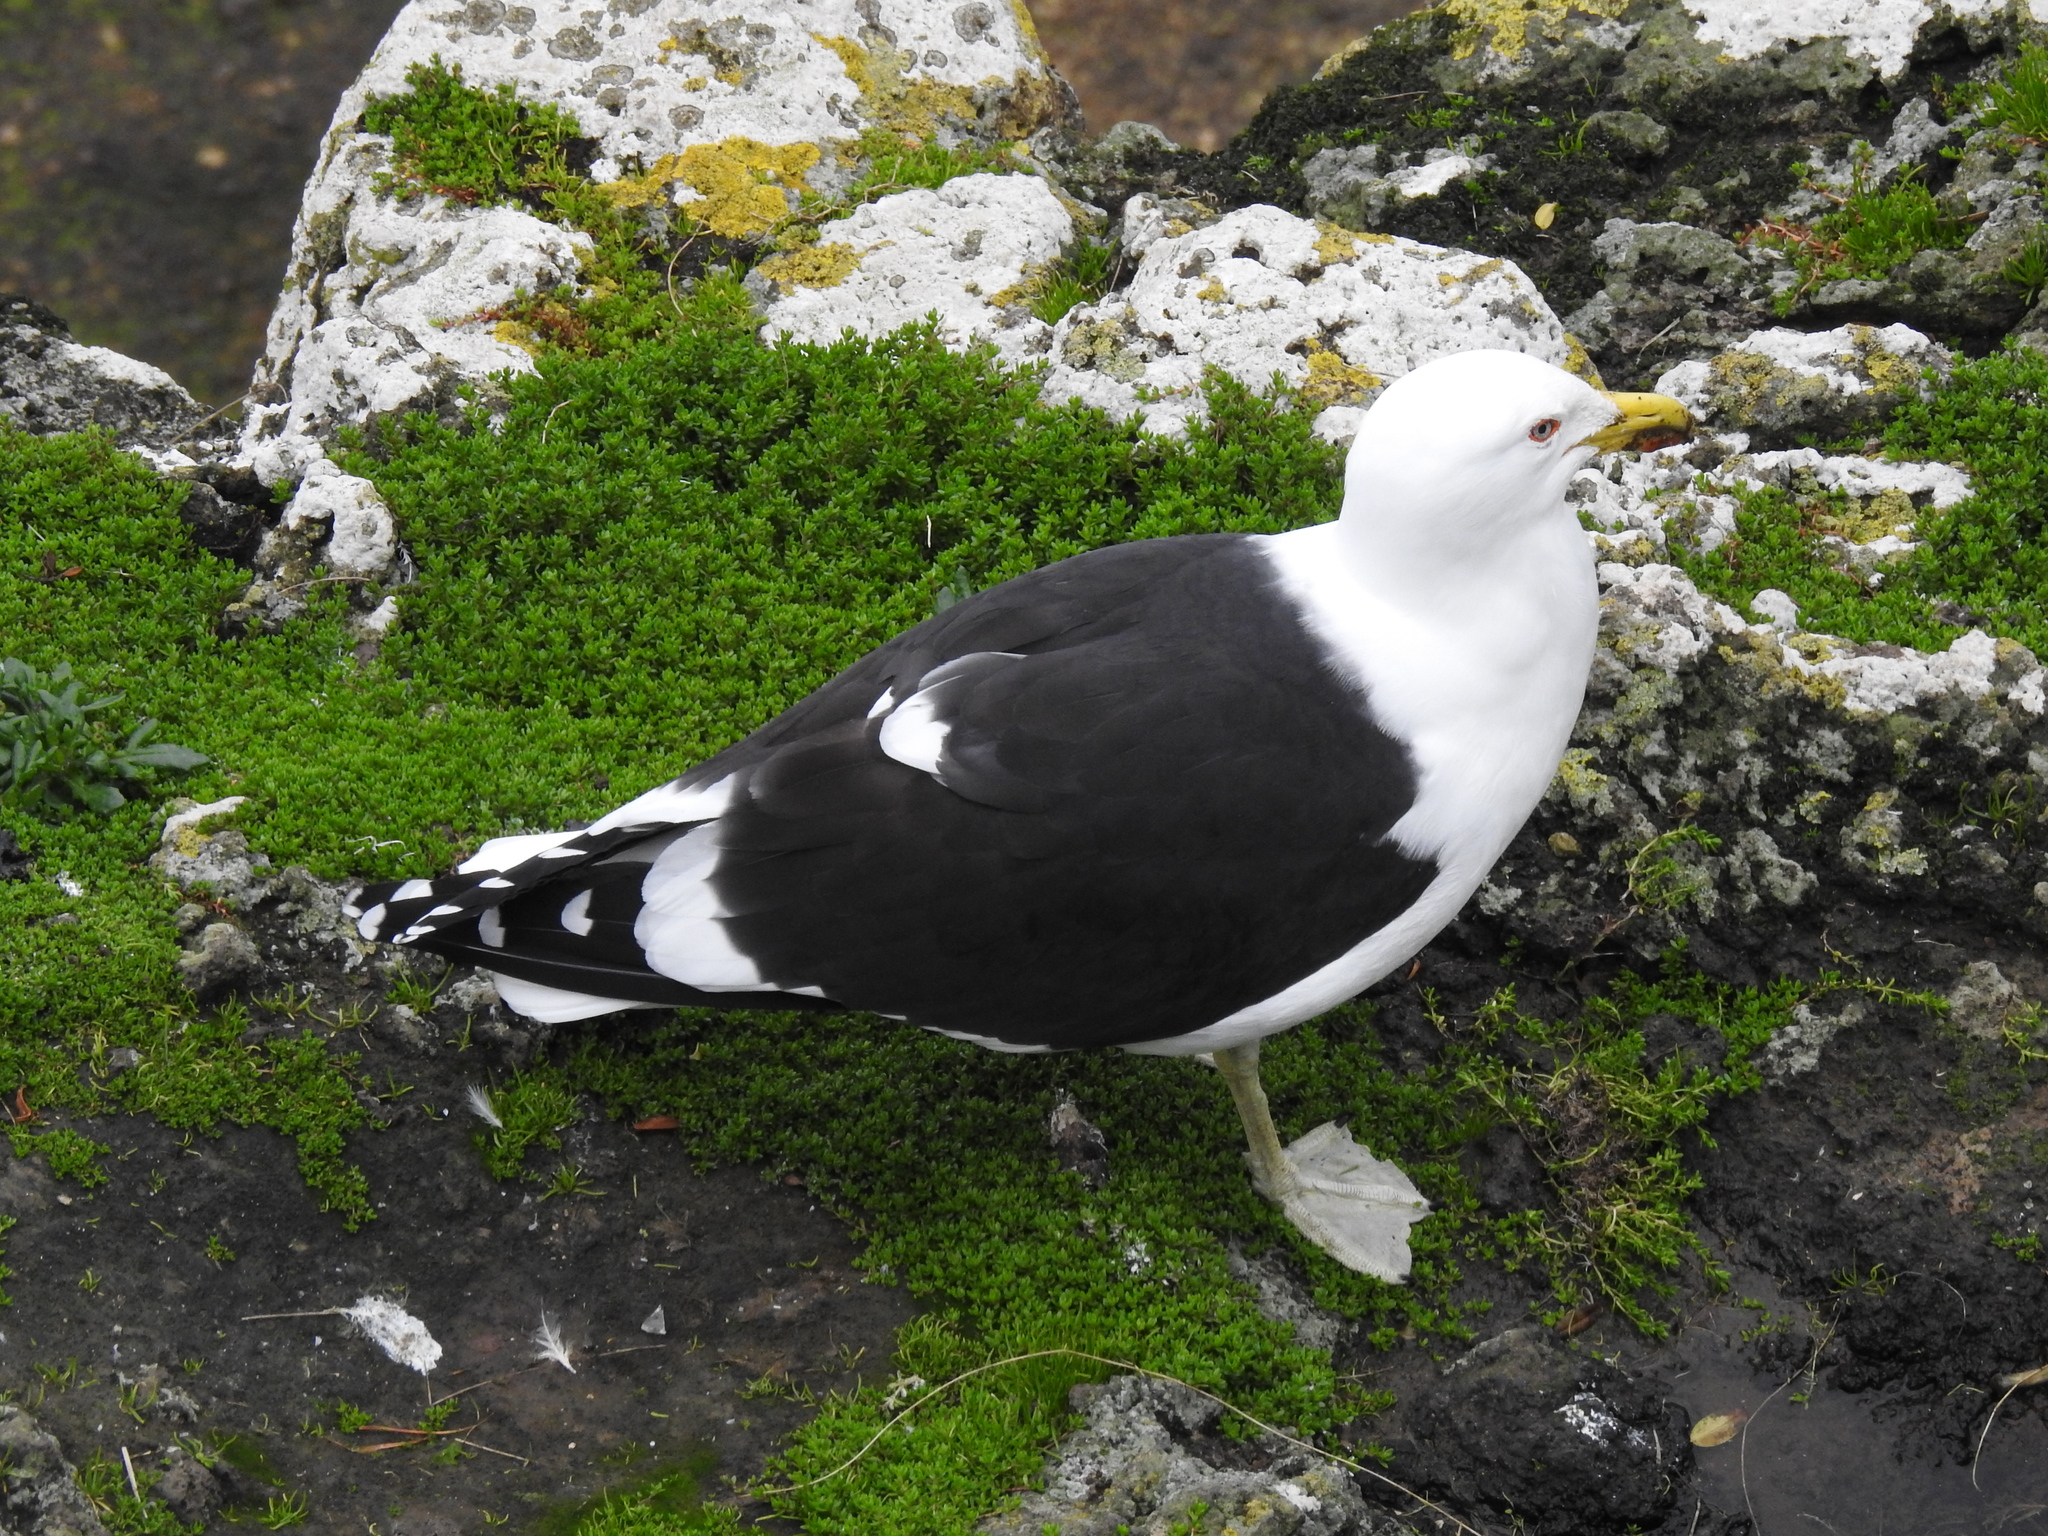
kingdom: Animalia
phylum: Chordata
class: Aves
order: Charadriiformes
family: Laridae
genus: Larus
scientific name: Larus dominicanus
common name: Kelp gull
